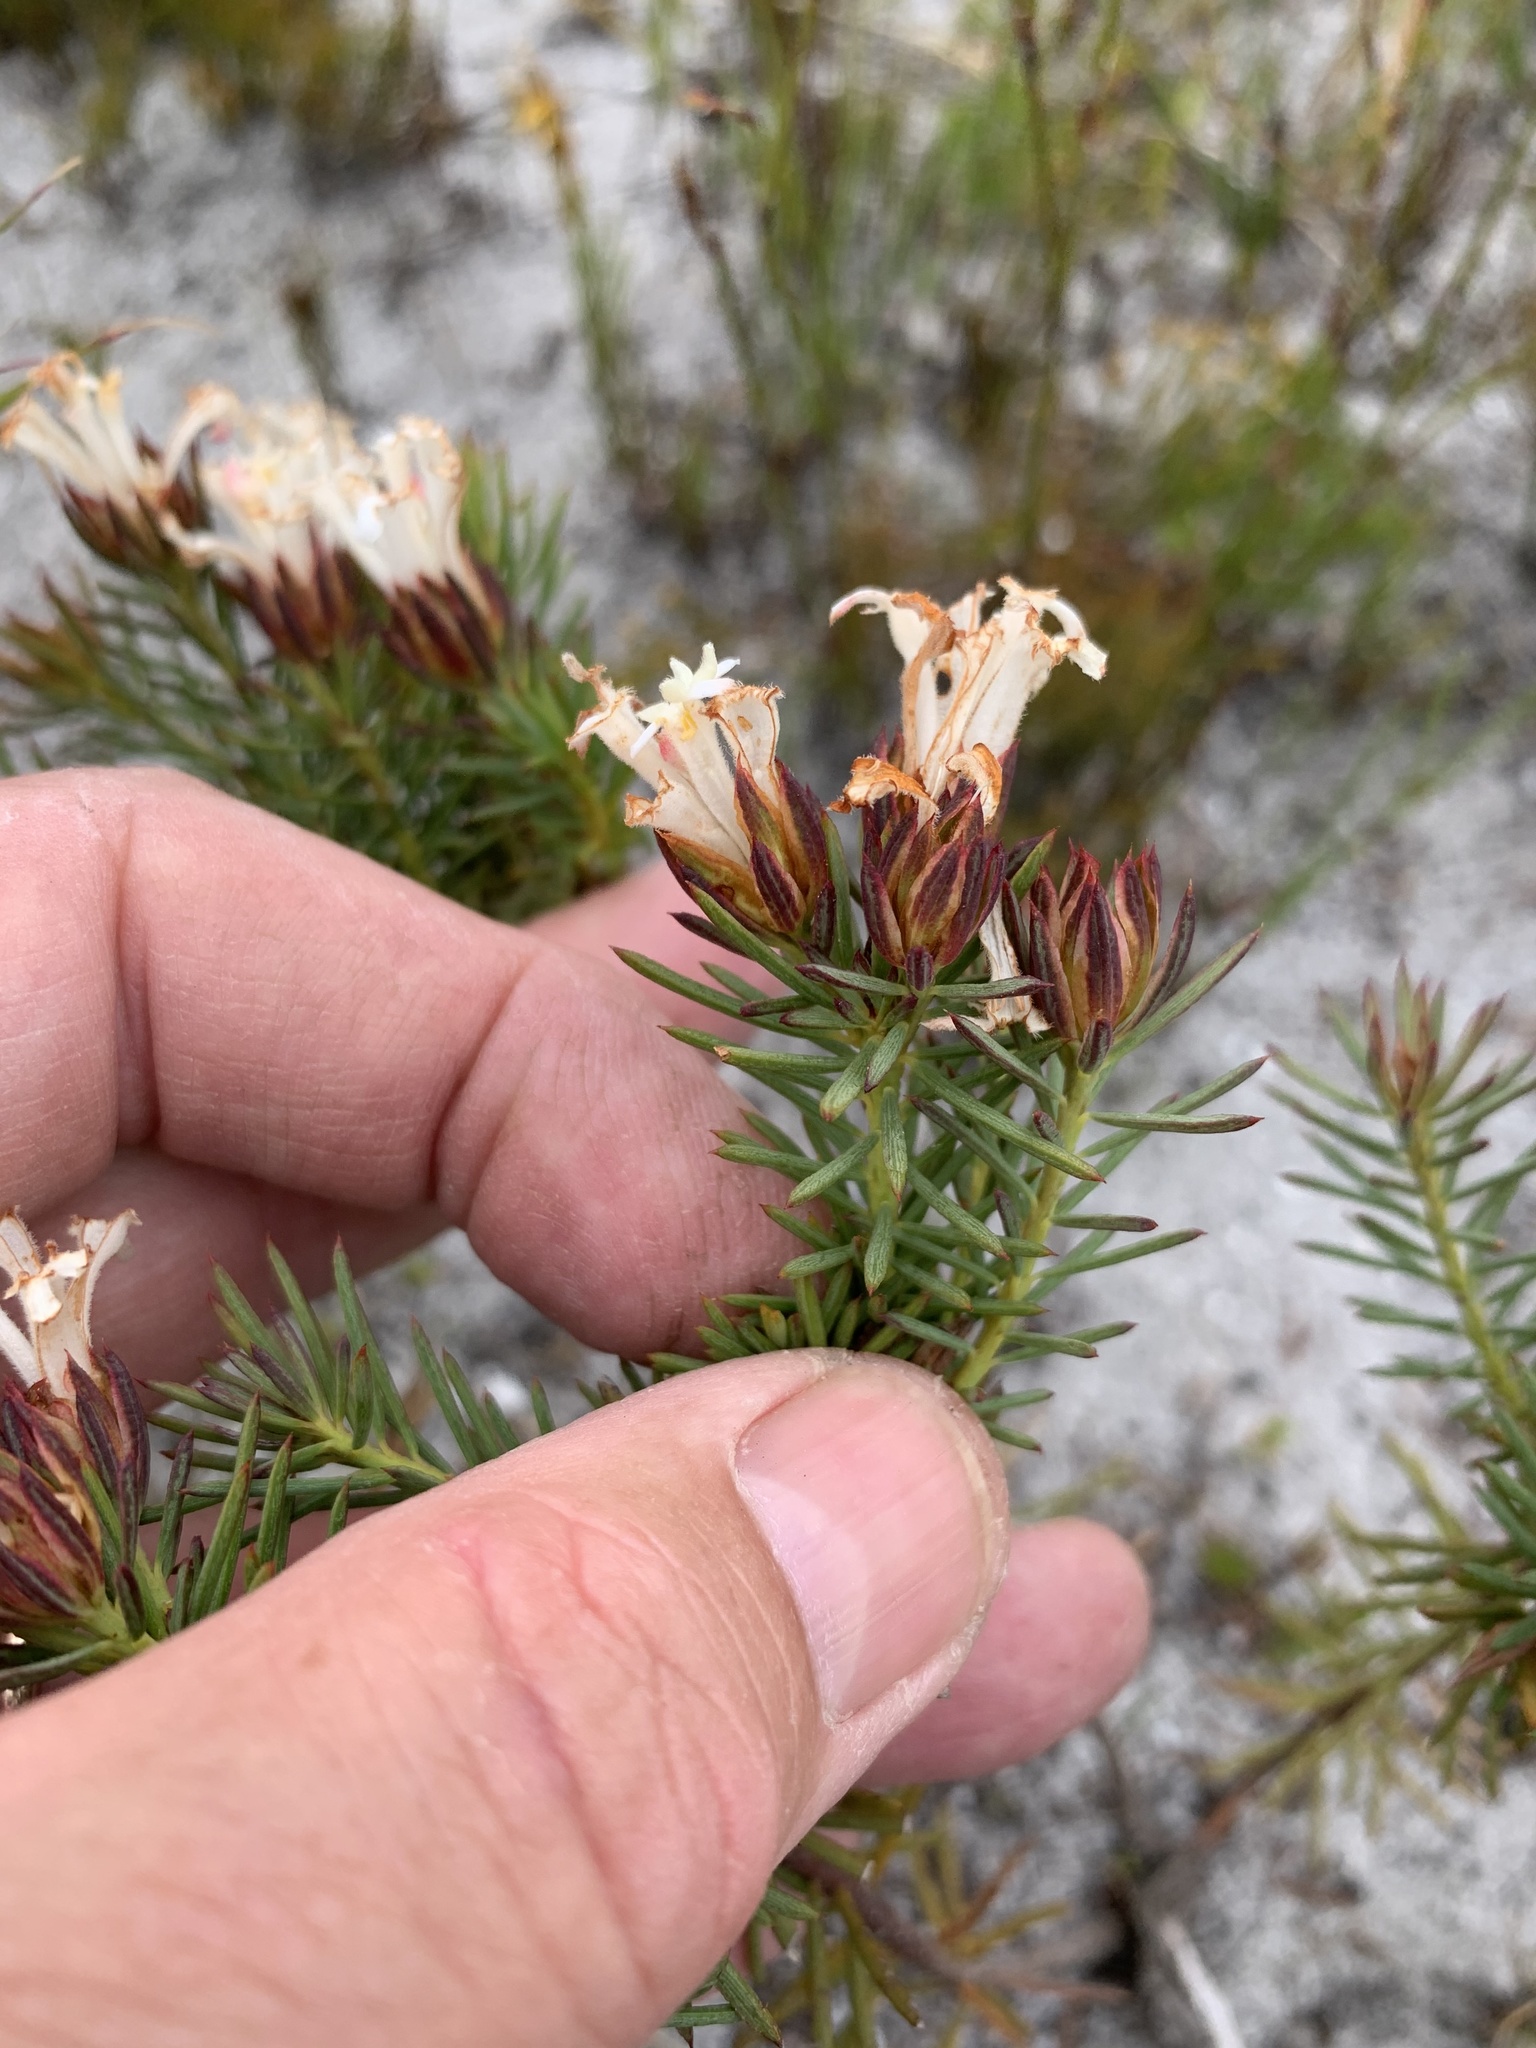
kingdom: Plantae
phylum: Tracheophyta
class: Magnoliopsida
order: Malvales
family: Thymelaeaceae
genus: Gnidia
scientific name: Gnidia pinifolia
